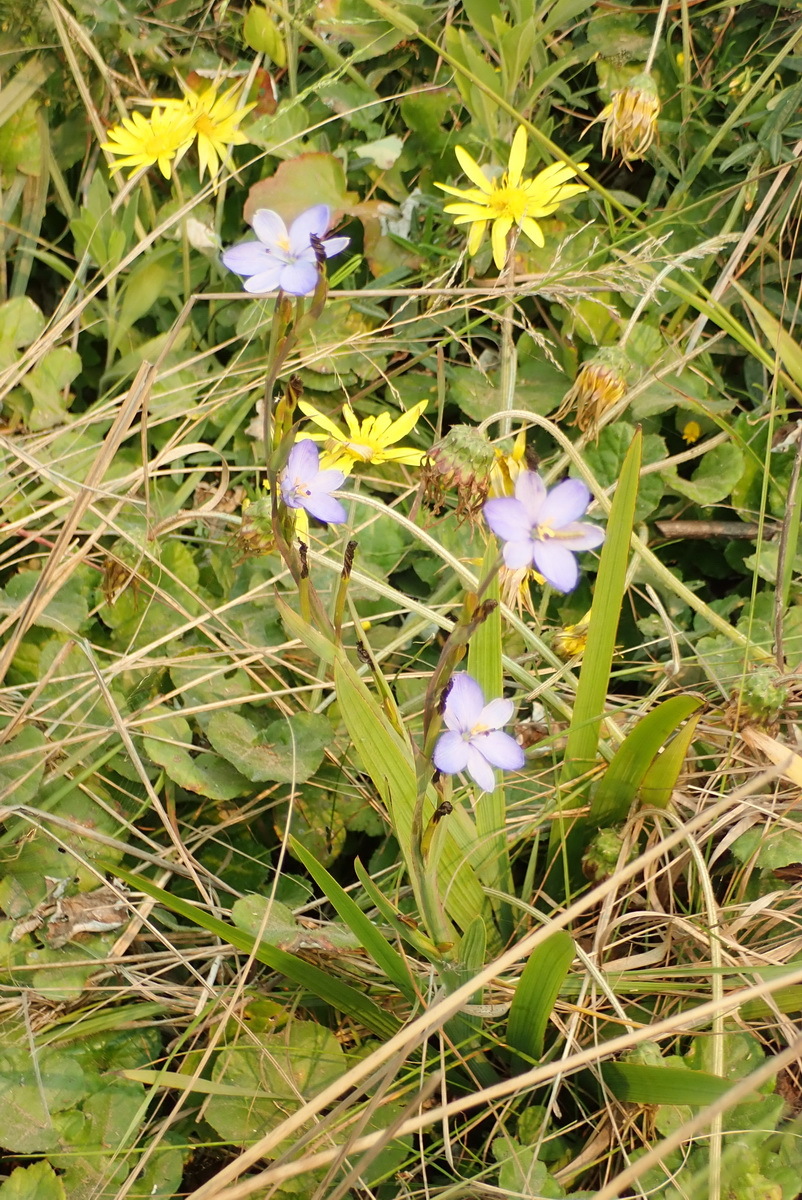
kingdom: Plantae
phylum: Tracheophyta
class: Liliopsida
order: Asparagales
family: Iridaceae
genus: Aristea
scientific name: Aristea ecklonii
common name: Blue corn-lily
